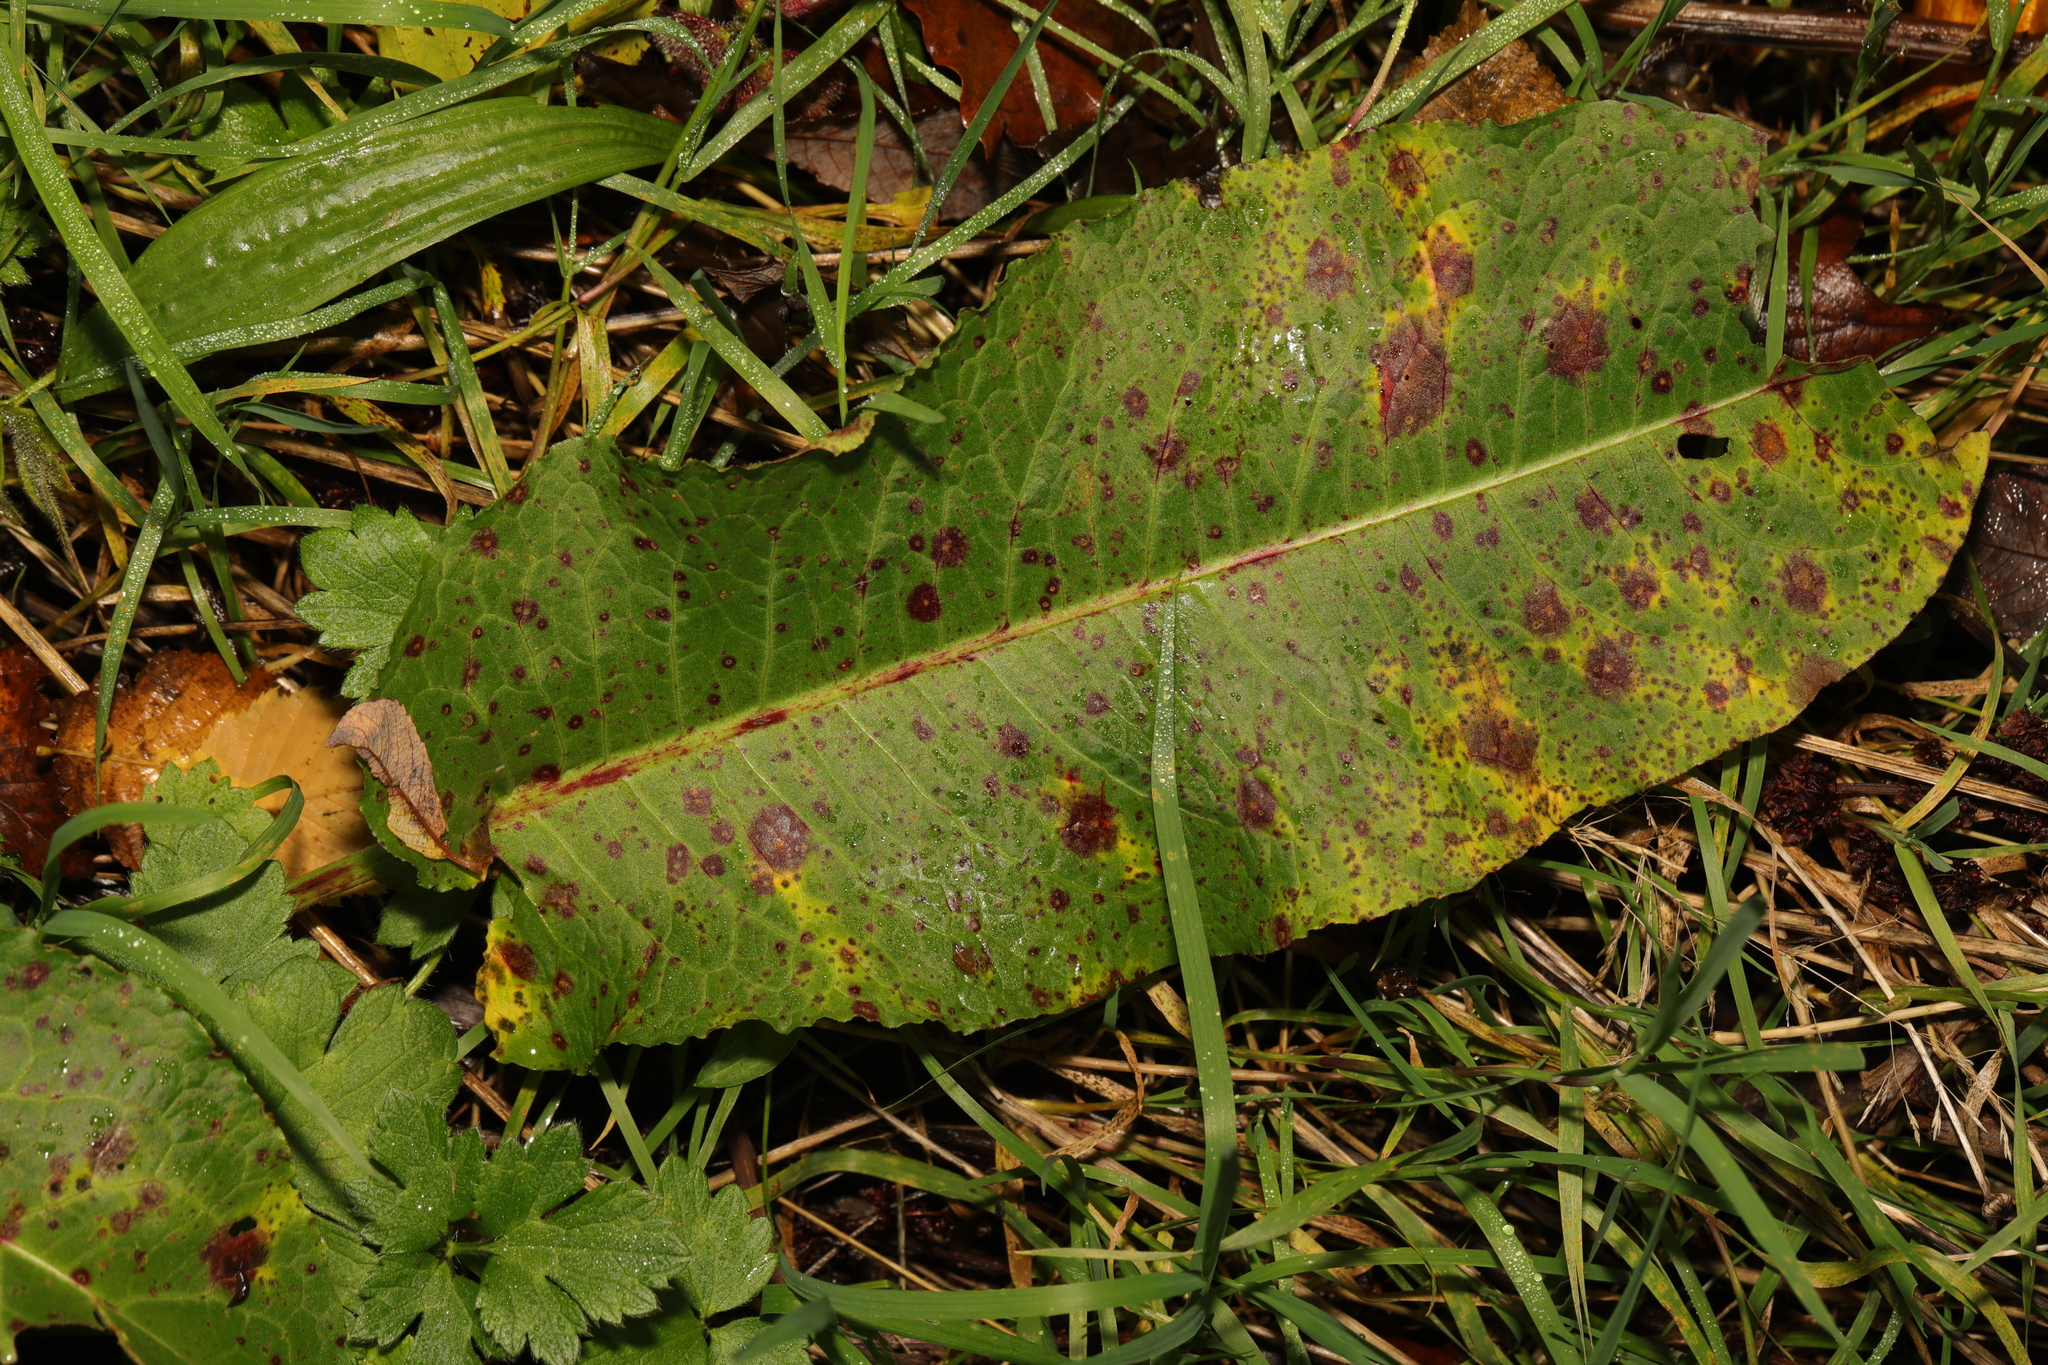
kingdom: Plantae
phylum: Tracheophyta
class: Magnoliopsida
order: Caryophyllales
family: Polygonaceae
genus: Rumex
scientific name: Rumex obtusifolius
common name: Bitter dock
